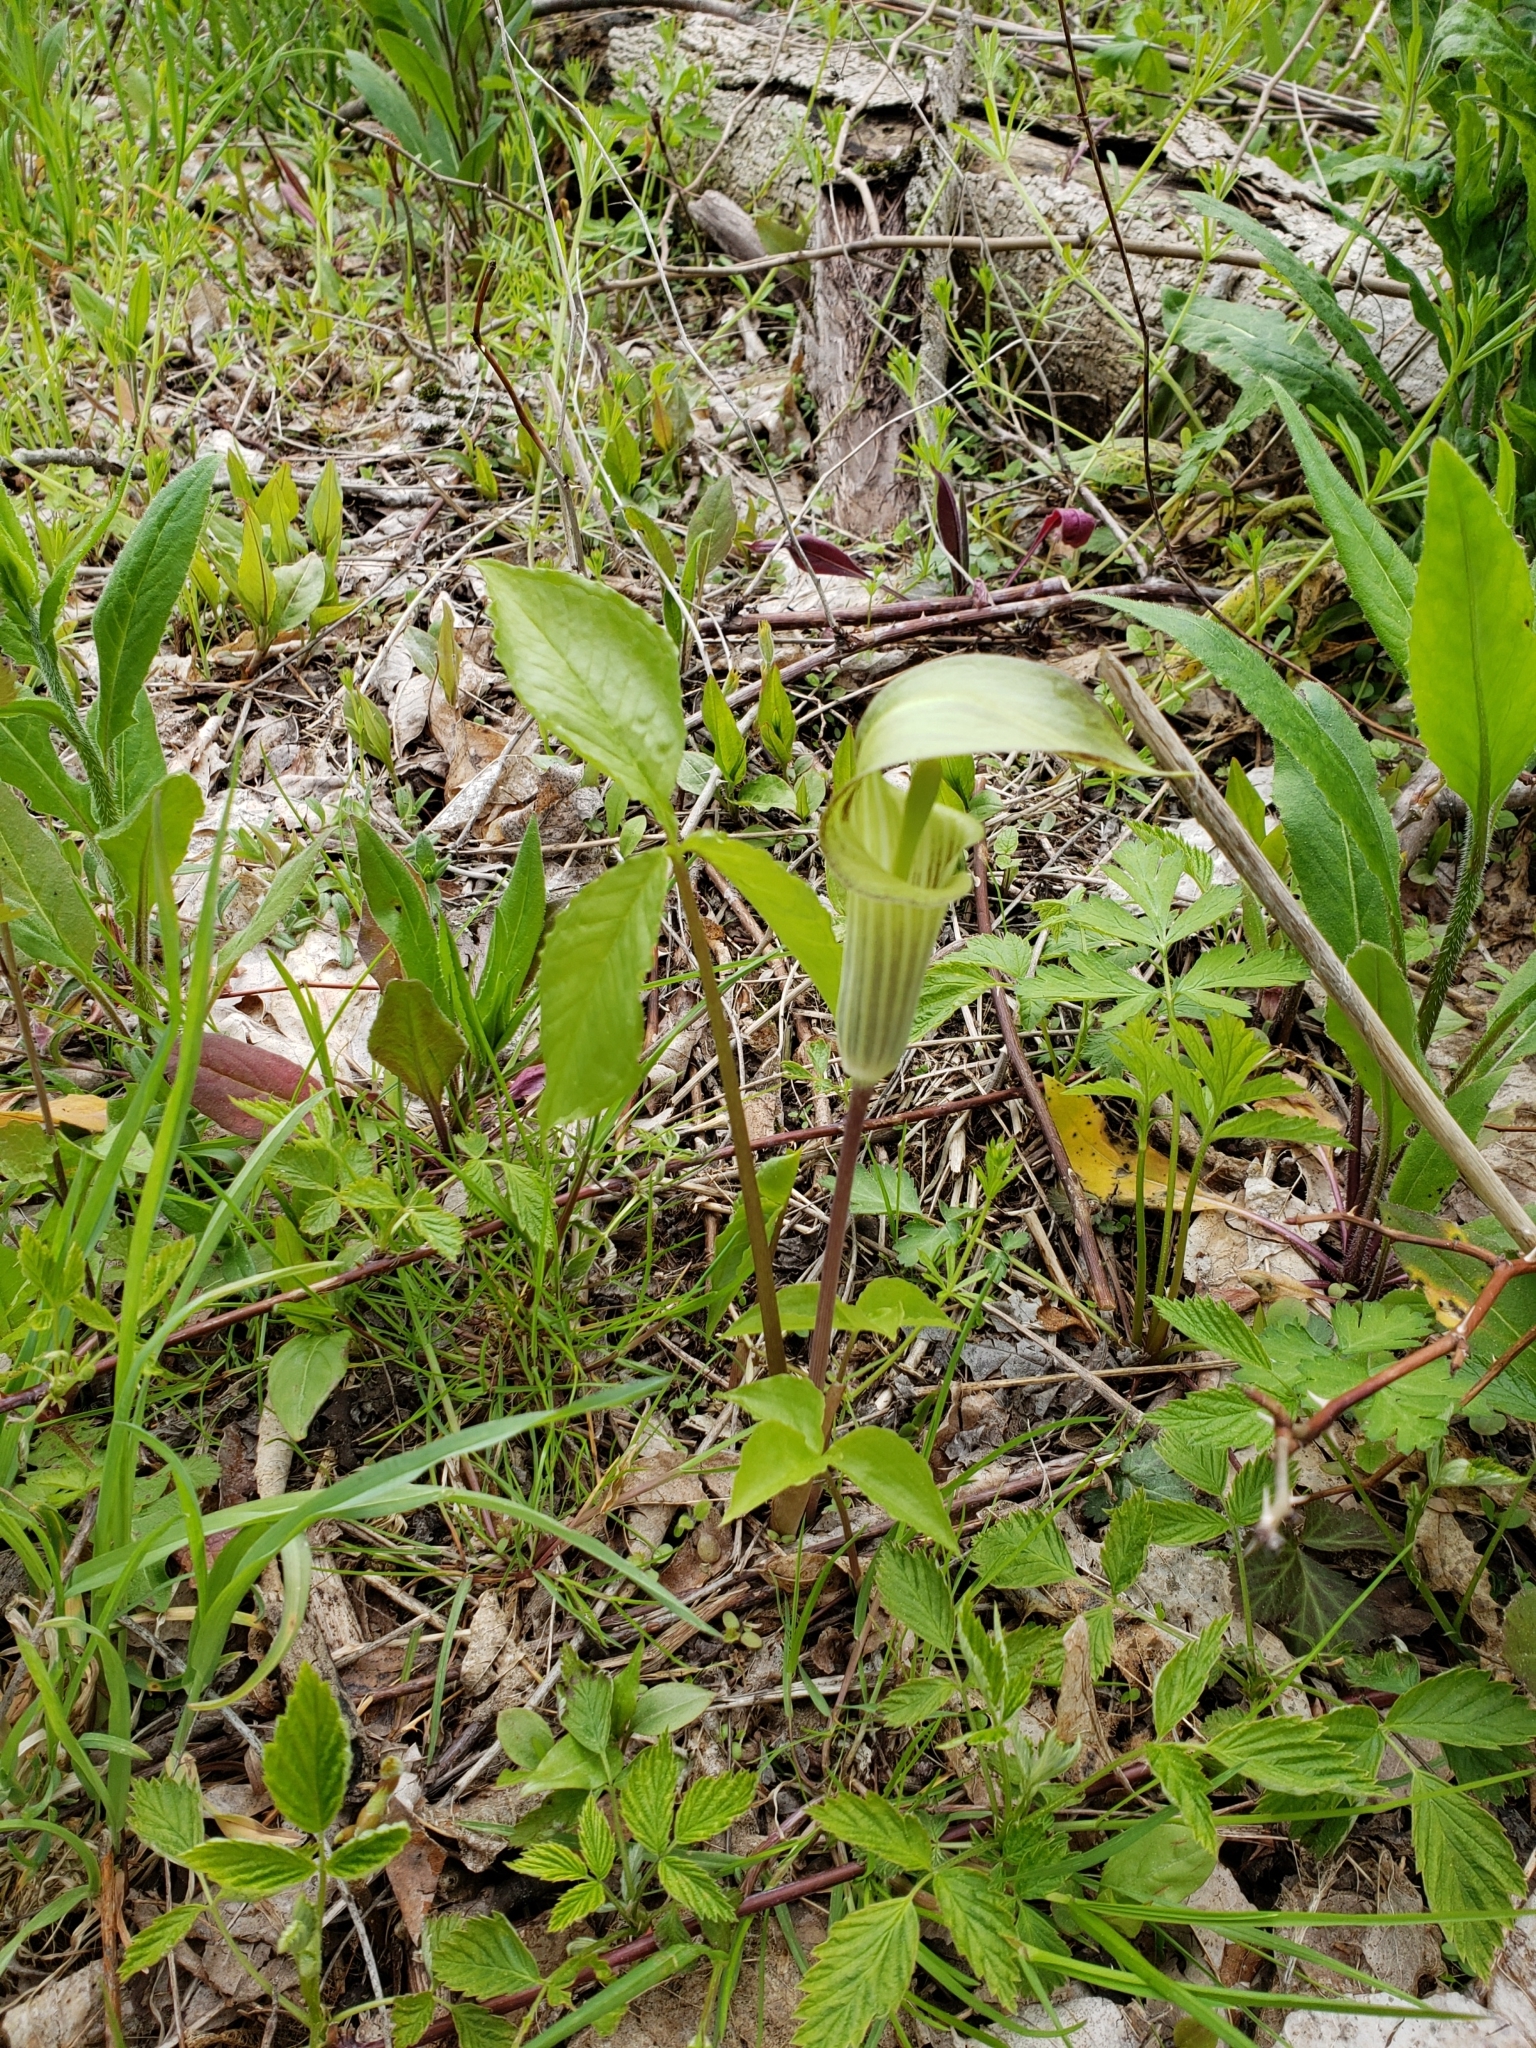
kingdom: Plantae
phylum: Tracheophyta
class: Liliopsida
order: Alismatales
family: Araceae
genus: Arisaema
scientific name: Arisaema triphyllum
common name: Jack-in-the-pulpit
